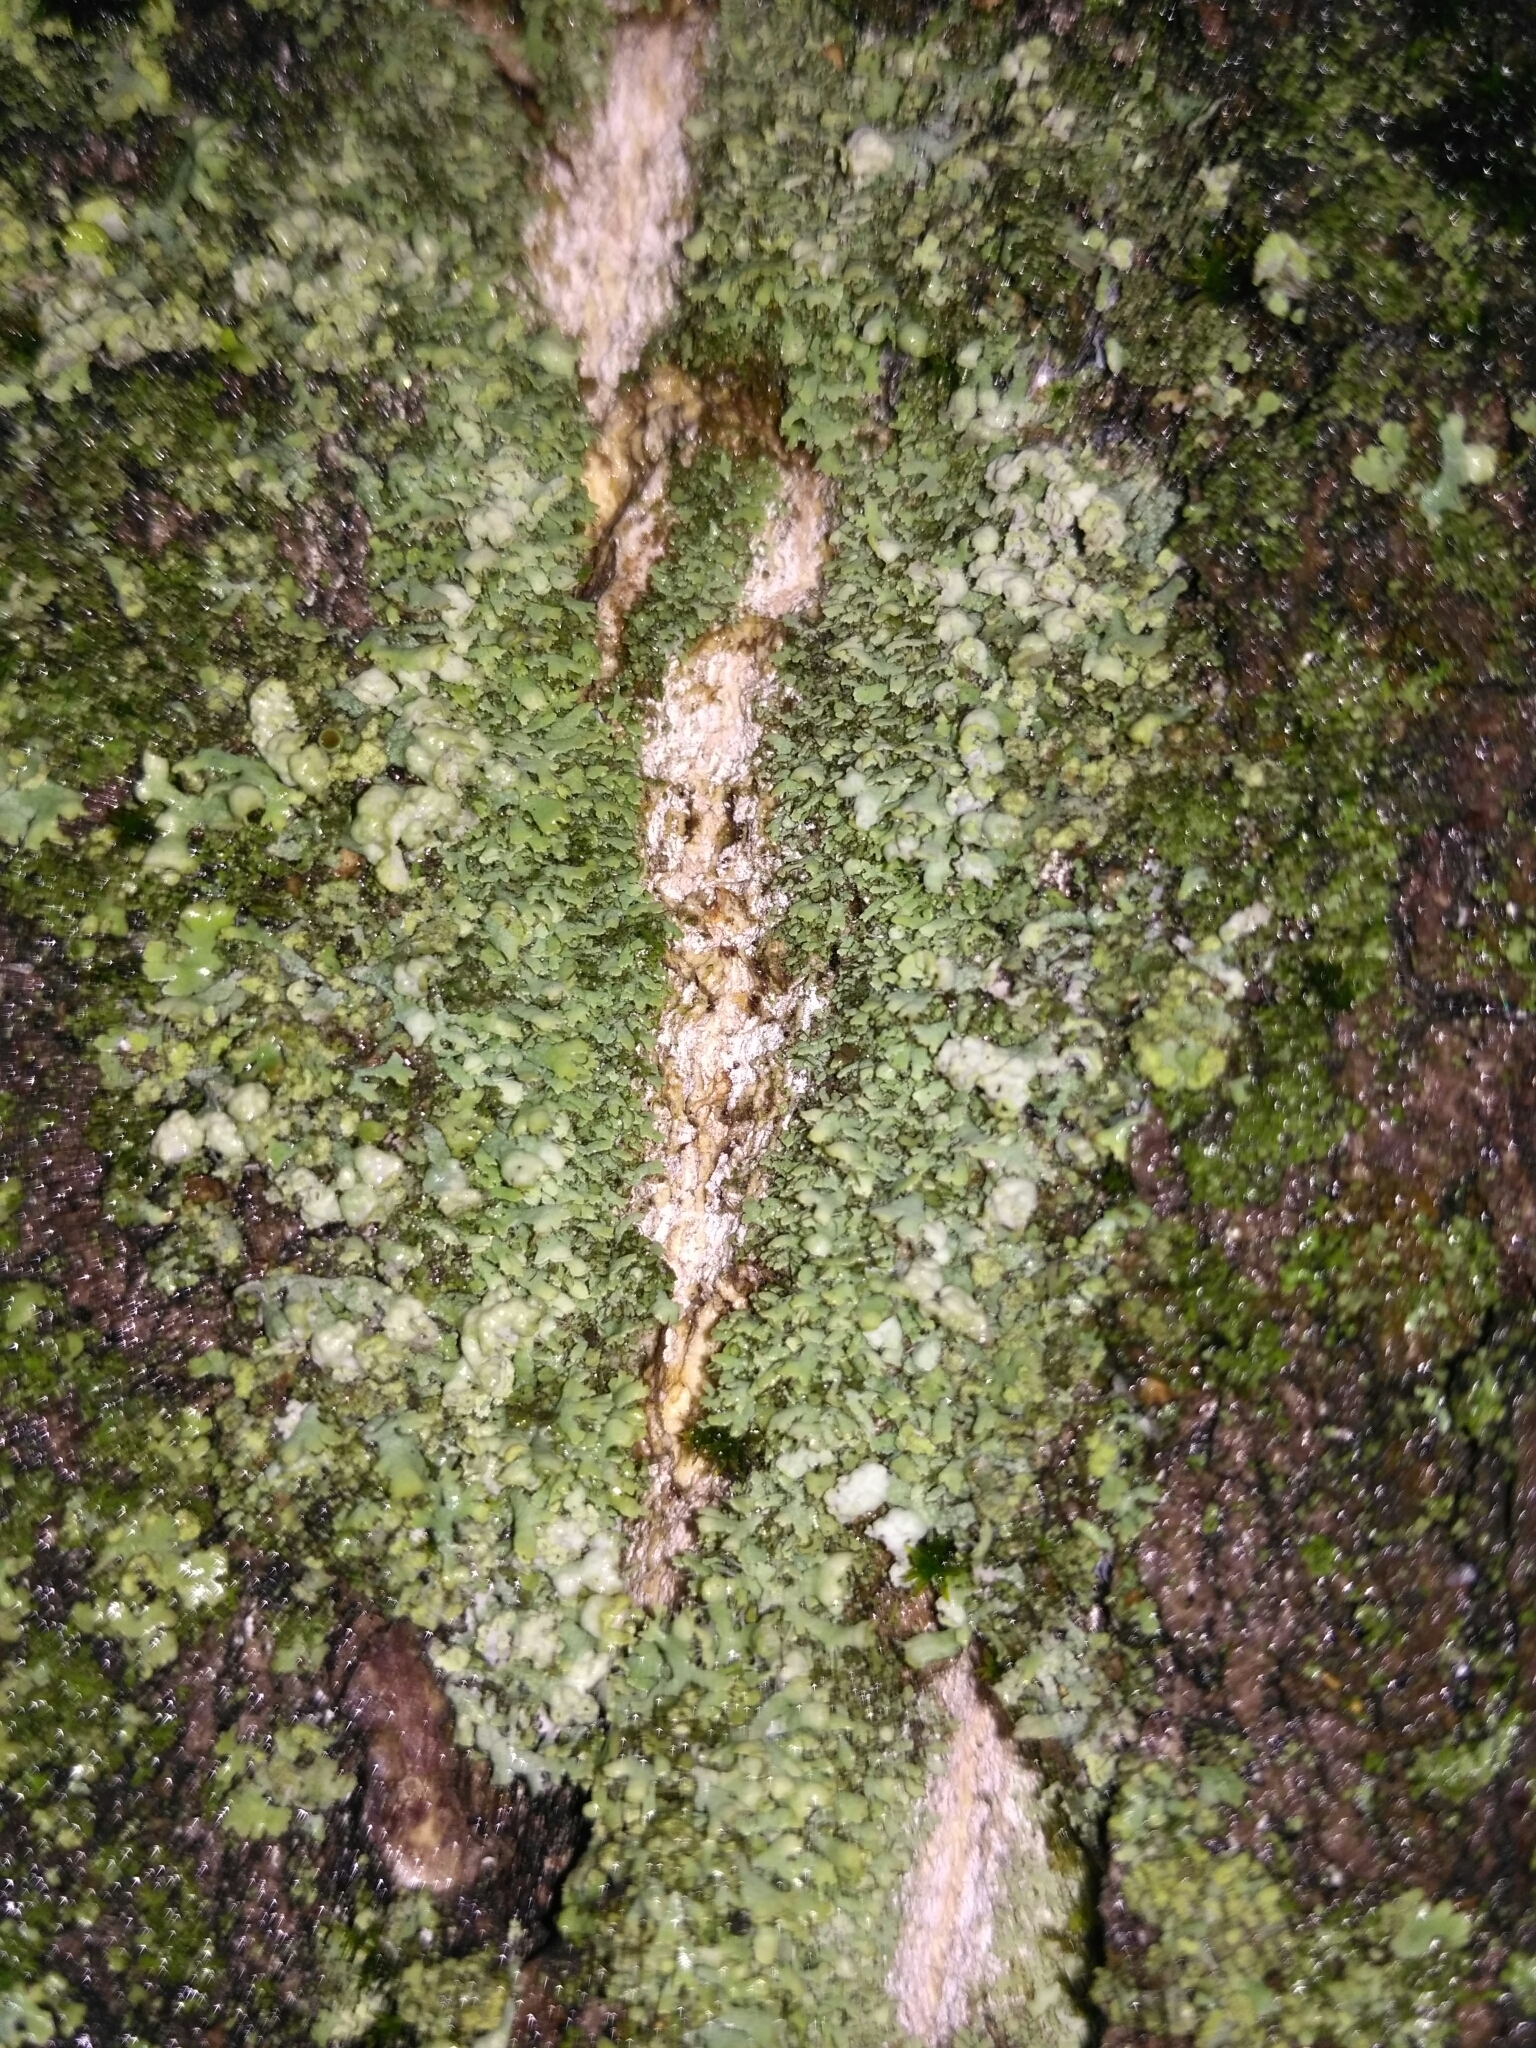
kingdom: Fungi
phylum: Ascomycota
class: Lecanoromycetes
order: Caliciales
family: Physciaceae
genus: Physcia
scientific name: Physcia adscendens
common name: Hooded rosette lichen
